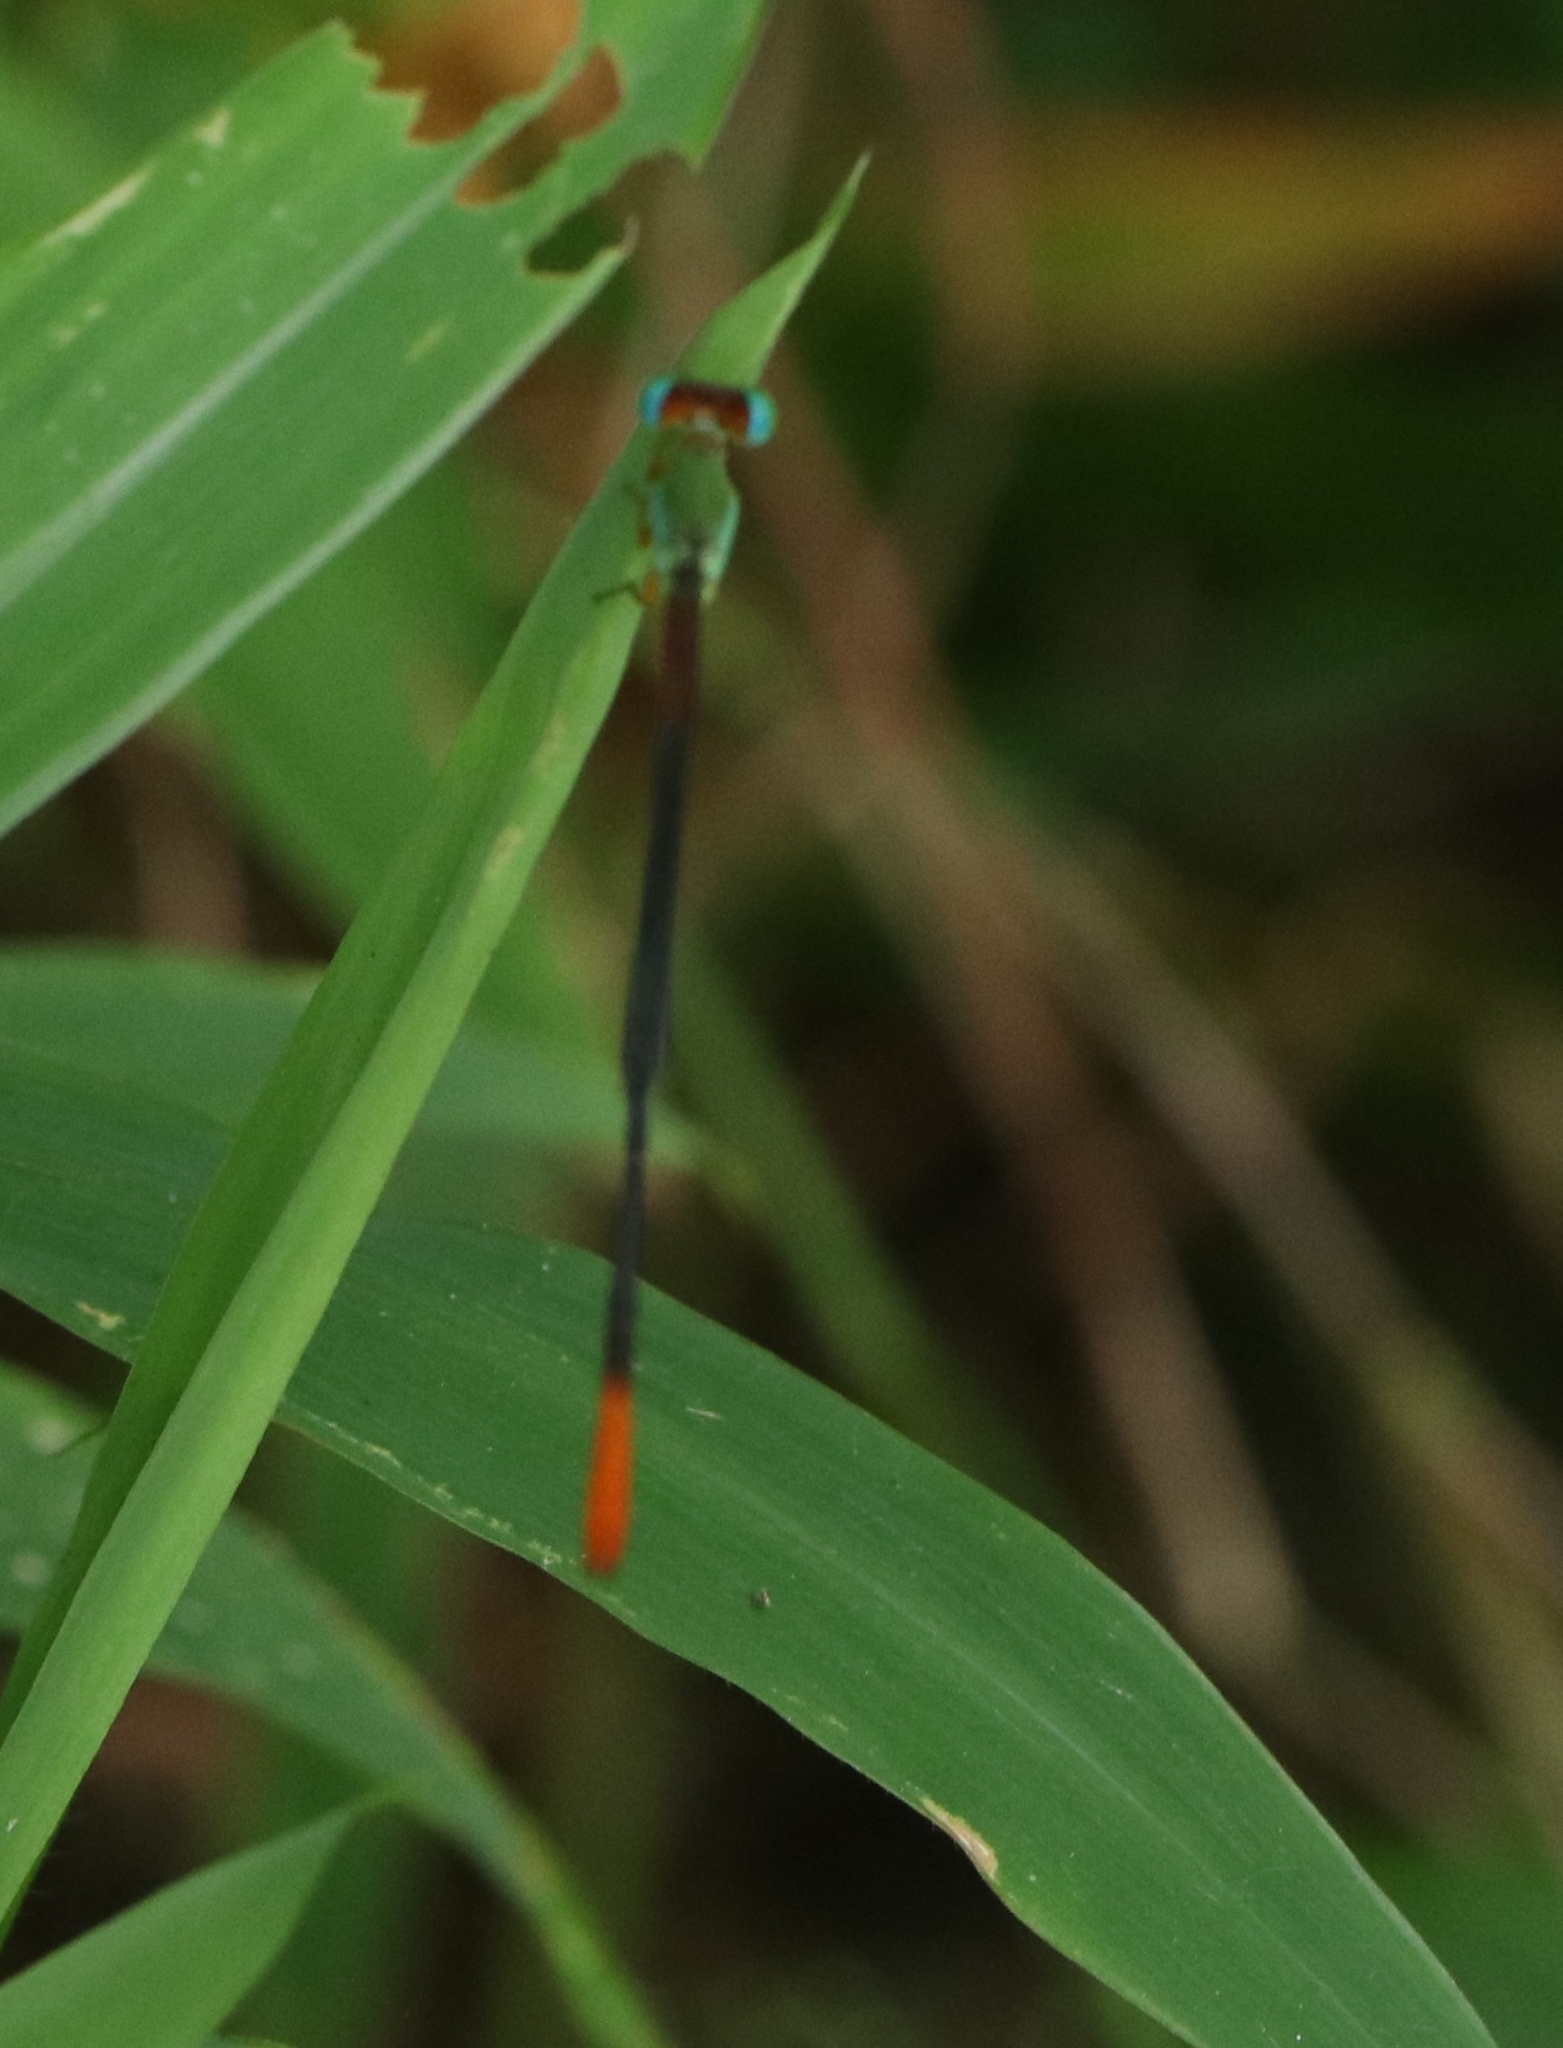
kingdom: Animalia
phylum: Arthropoda
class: Insecta
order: Odonata
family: Coenagrionidae
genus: Ceriagrion
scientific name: Ceriagrion cerinorubellum
